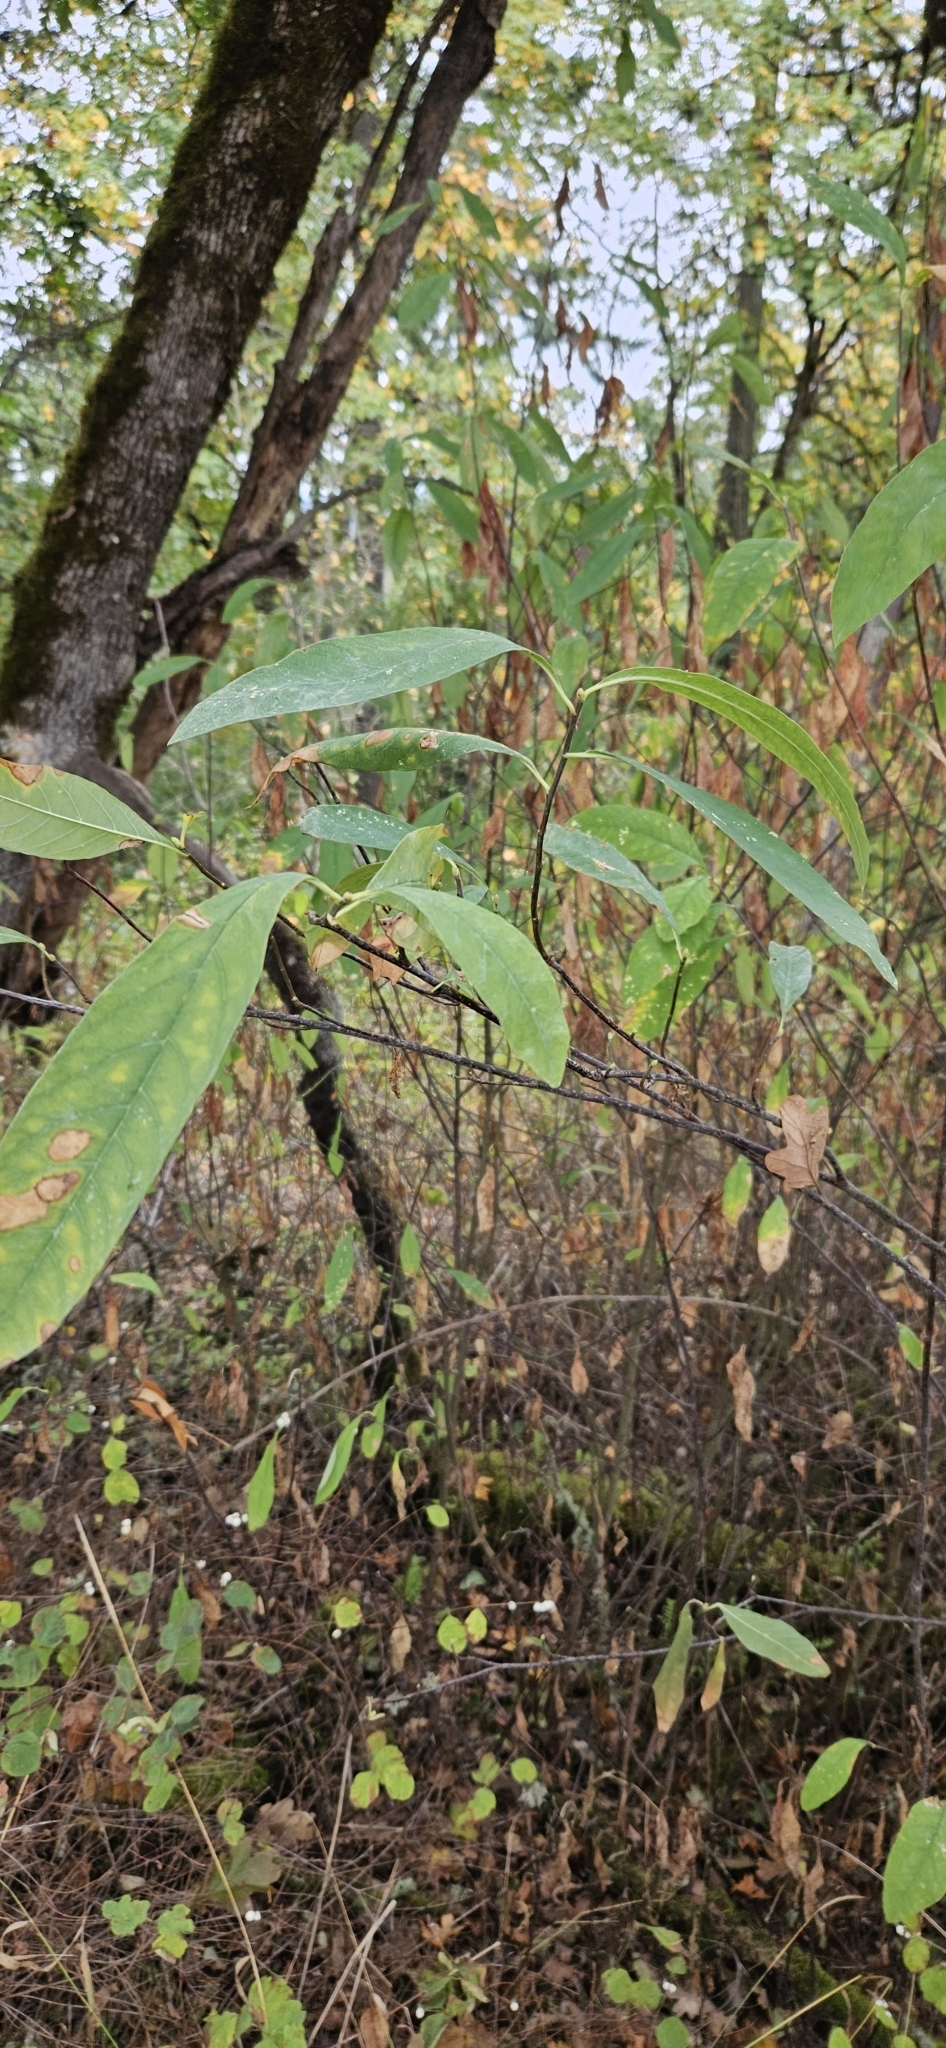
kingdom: Plantae
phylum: Tracheophyta
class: Magnoliopsida
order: Rosales
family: Rosaceae
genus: Oemleria
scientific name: Oemleria cerasiformis
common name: Osoberry
